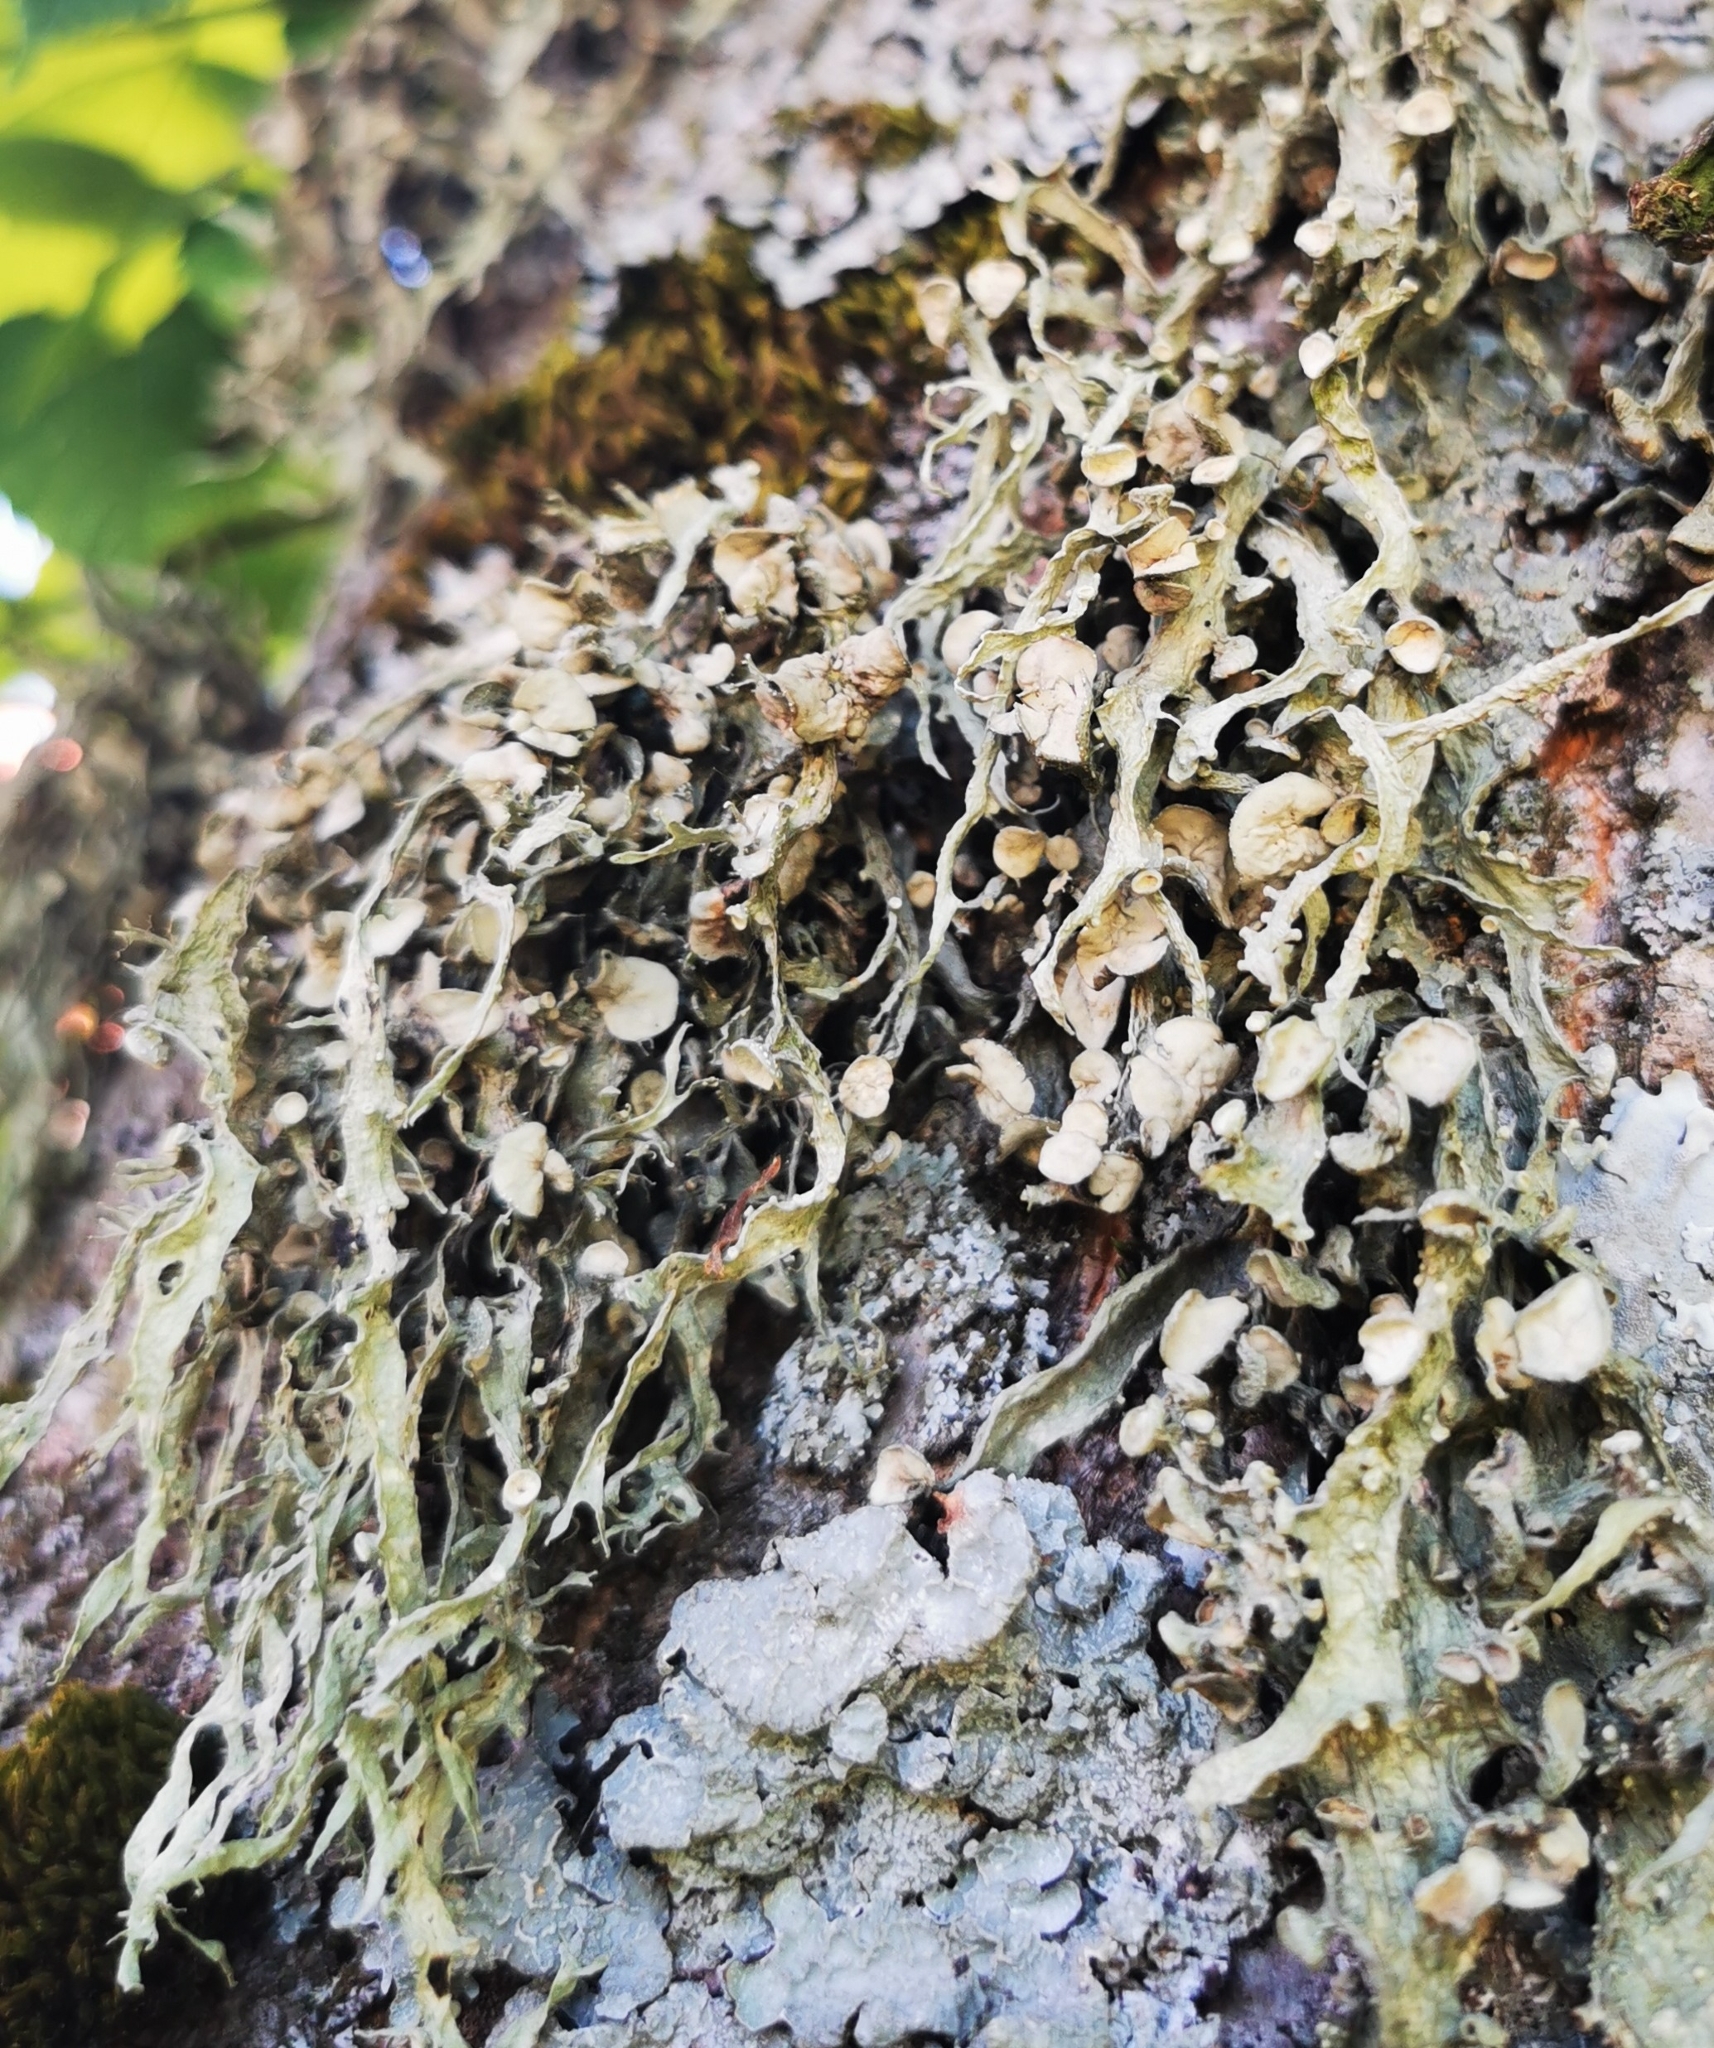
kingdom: Fungi
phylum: Ascomycota
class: Lecanoromycetes
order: Lecanorales
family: Ramalinaceae
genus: Ramalina
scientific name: Ramalina fraxinea
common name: Cartilage lichen
